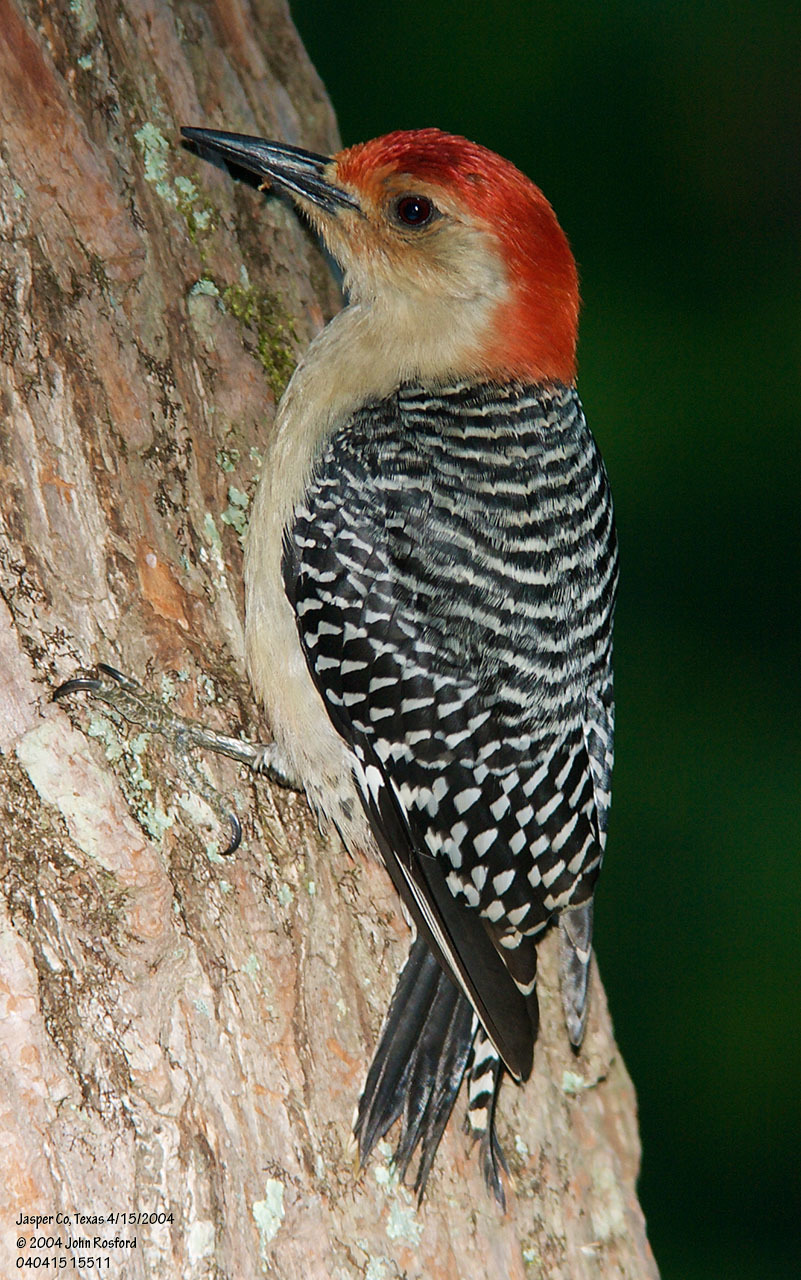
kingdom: Animalia
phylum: Chordata
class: Aves
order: Piciformes
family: Picidae
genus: Melanerpes
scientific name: Melanerpes carolinus
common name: Red-bellied woodpecker
